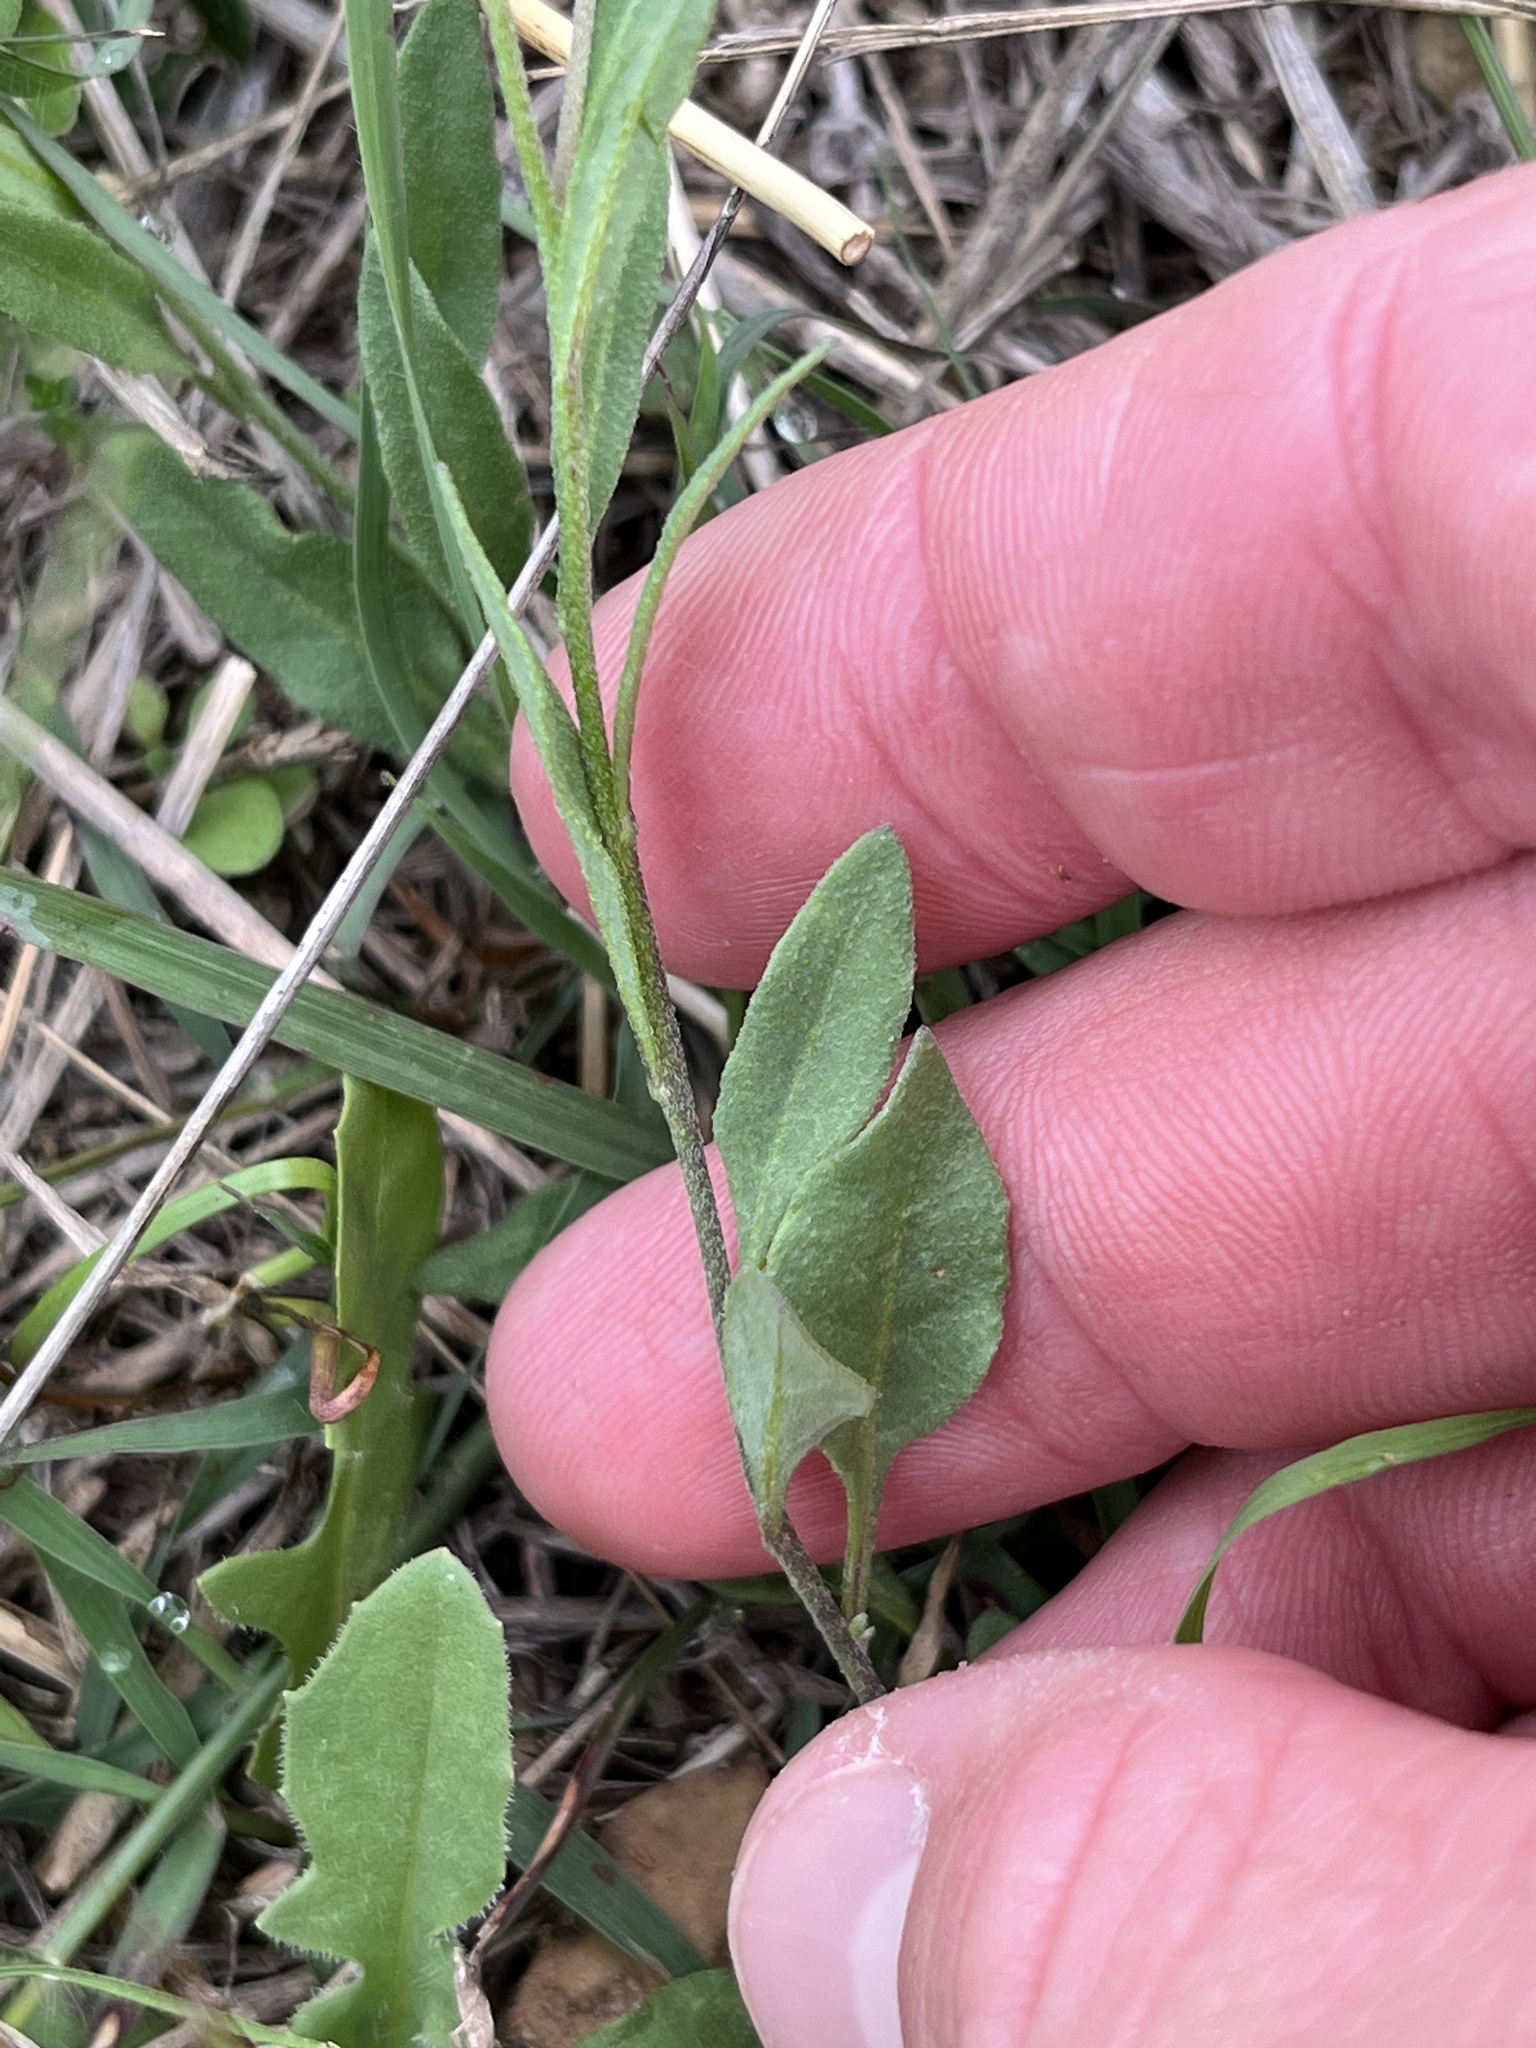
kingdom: Plantae
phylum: Tracheophyta
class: Magnoliopsida
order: Solanales
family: Solanaceae
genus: Salpiglossis
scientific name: Salpiglossis erecta
